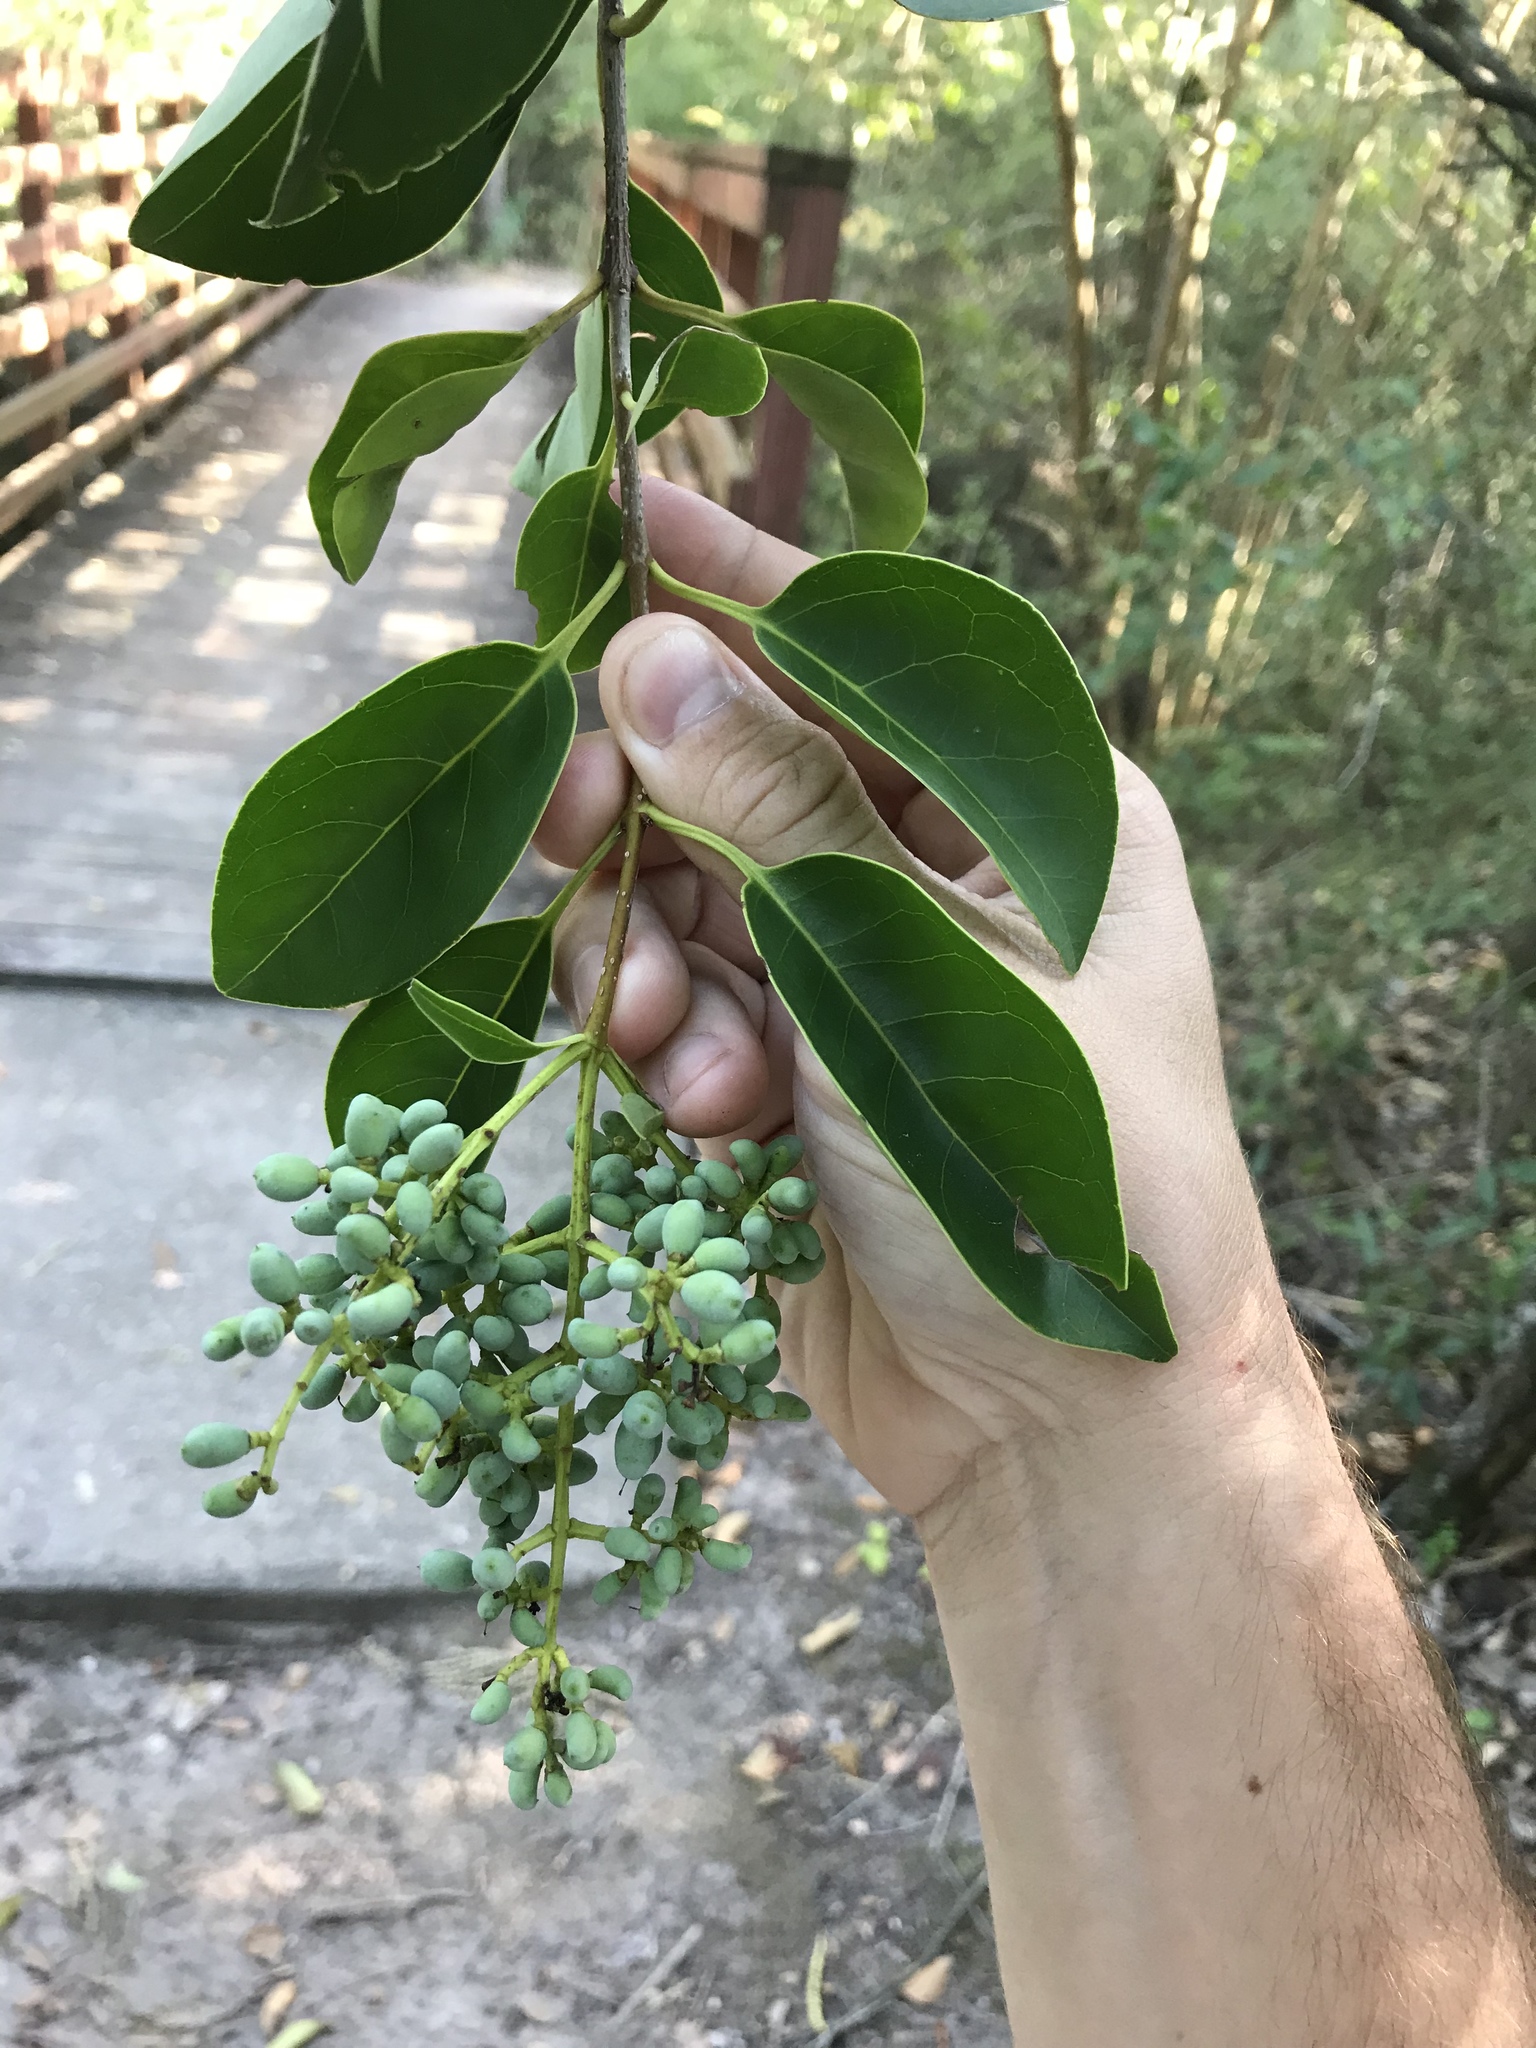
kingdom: Plantae
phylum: Tracheophyta
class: Magnoliopsida
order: Lamiales
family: Oleaceae
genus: Ligustrum
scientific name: Ligustrum lucidum
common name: Glossy privet
